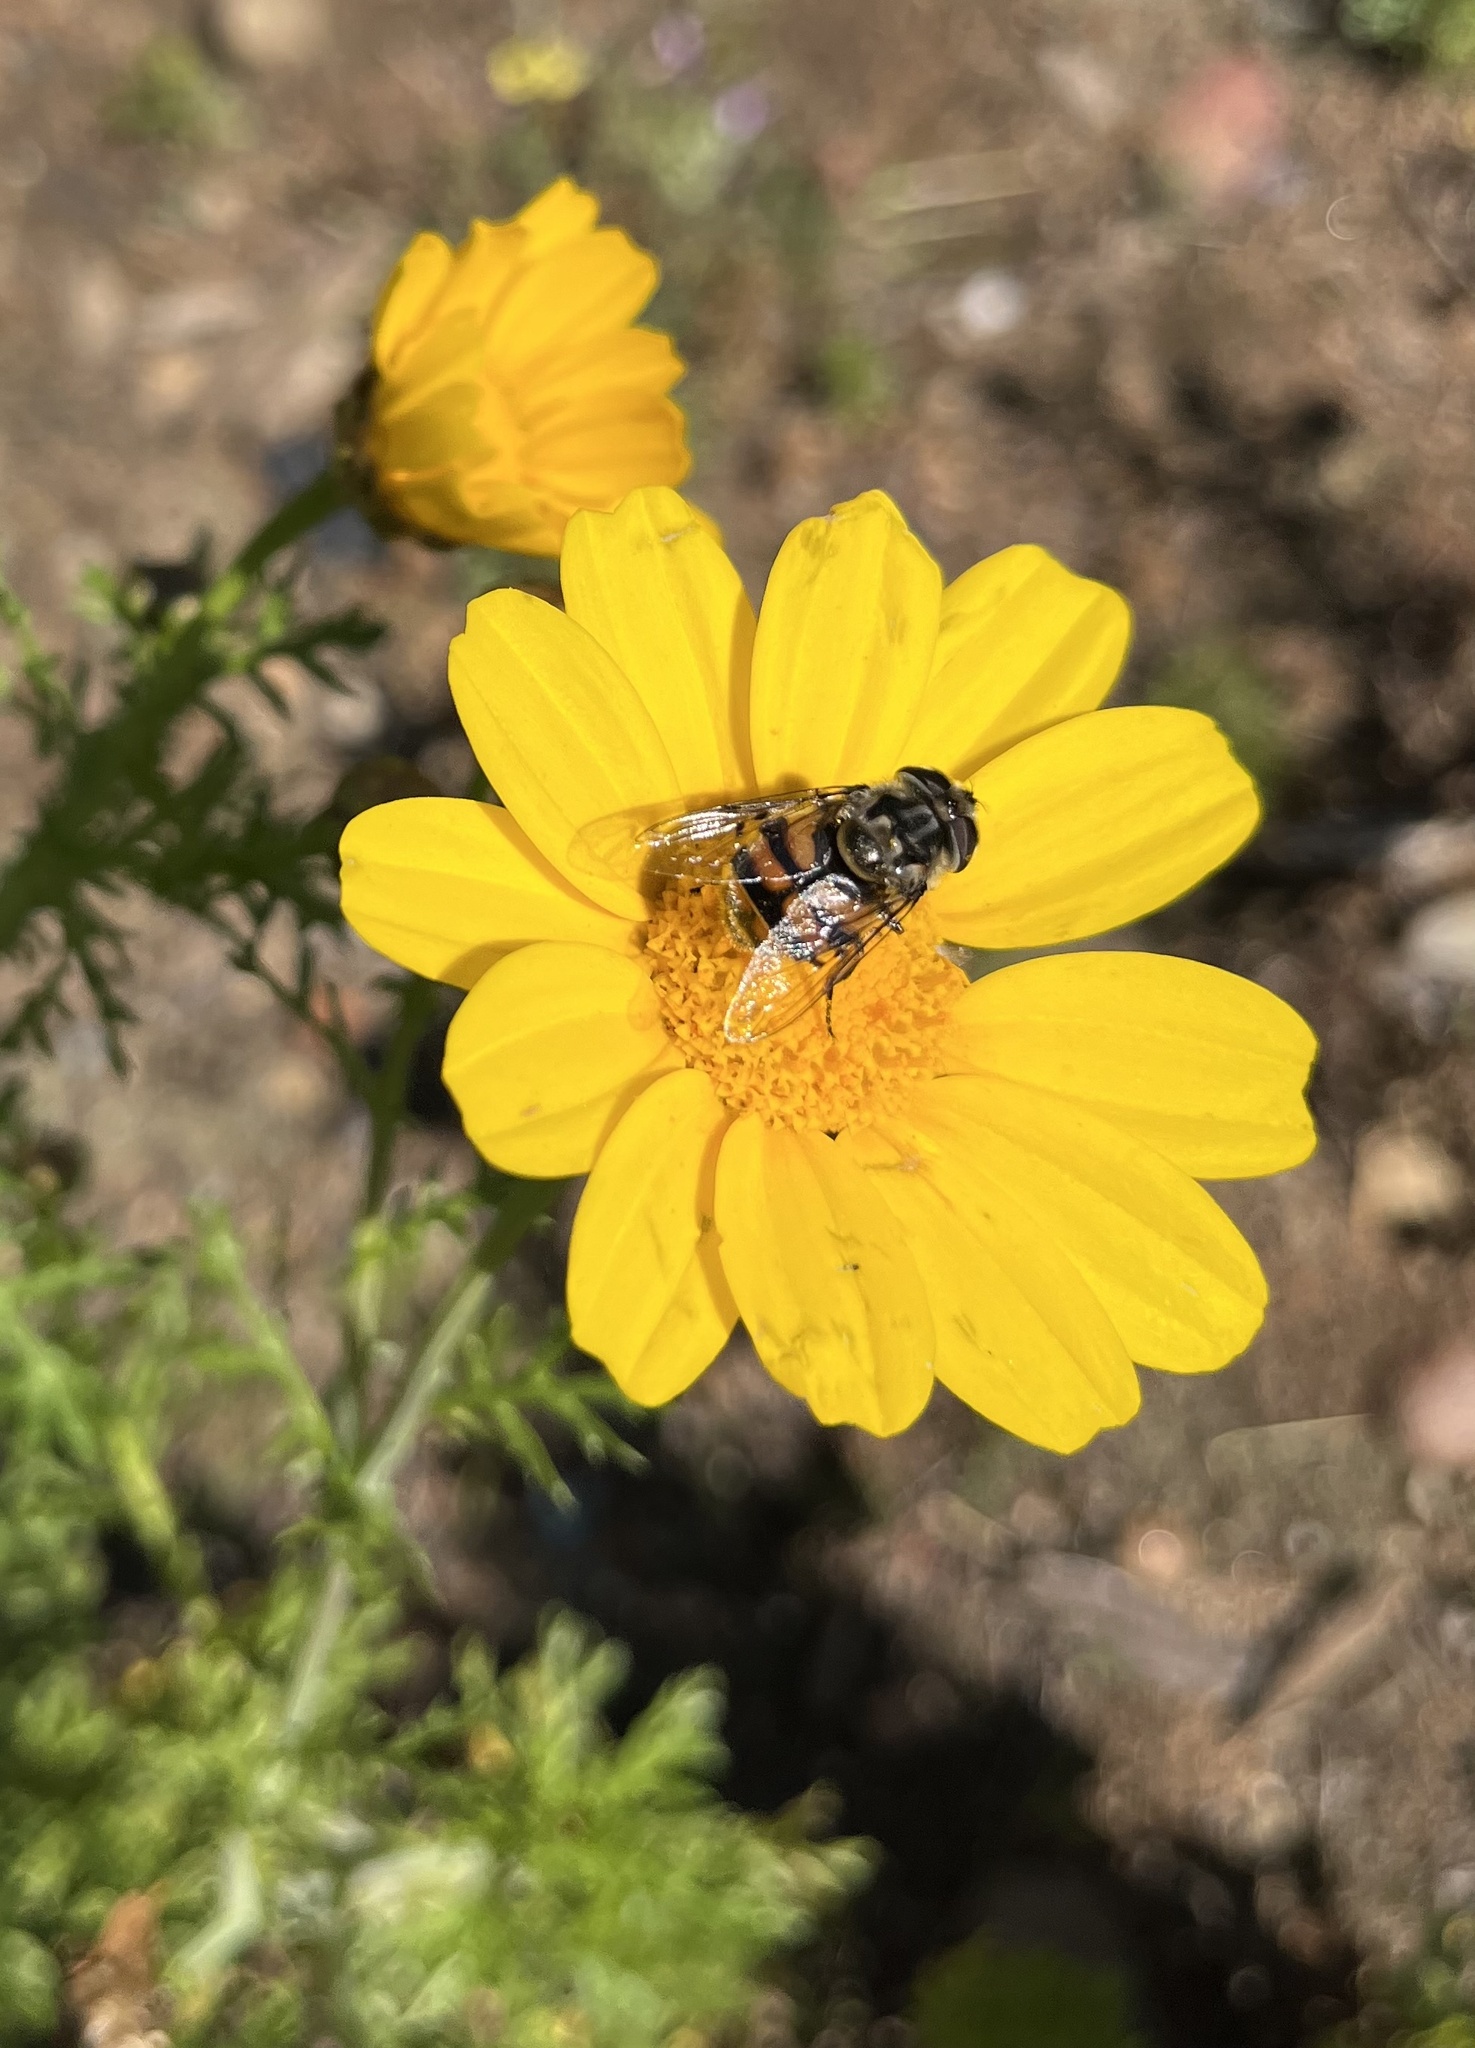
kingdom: Animalia
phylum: Arthropoda
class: Insecta
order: Diptera
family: Syrphidae
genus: Copestylum
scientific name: Copestylum avidum
